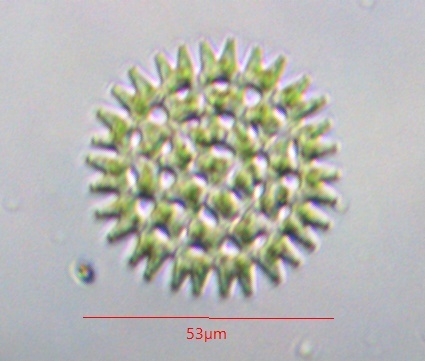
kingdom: Plantae
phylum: Chlorophyta
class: Chlorophyceae
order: Sphaeropleales
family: Hydrodictyaceae
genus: Pediastrum
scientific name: Pediastrum duplex
